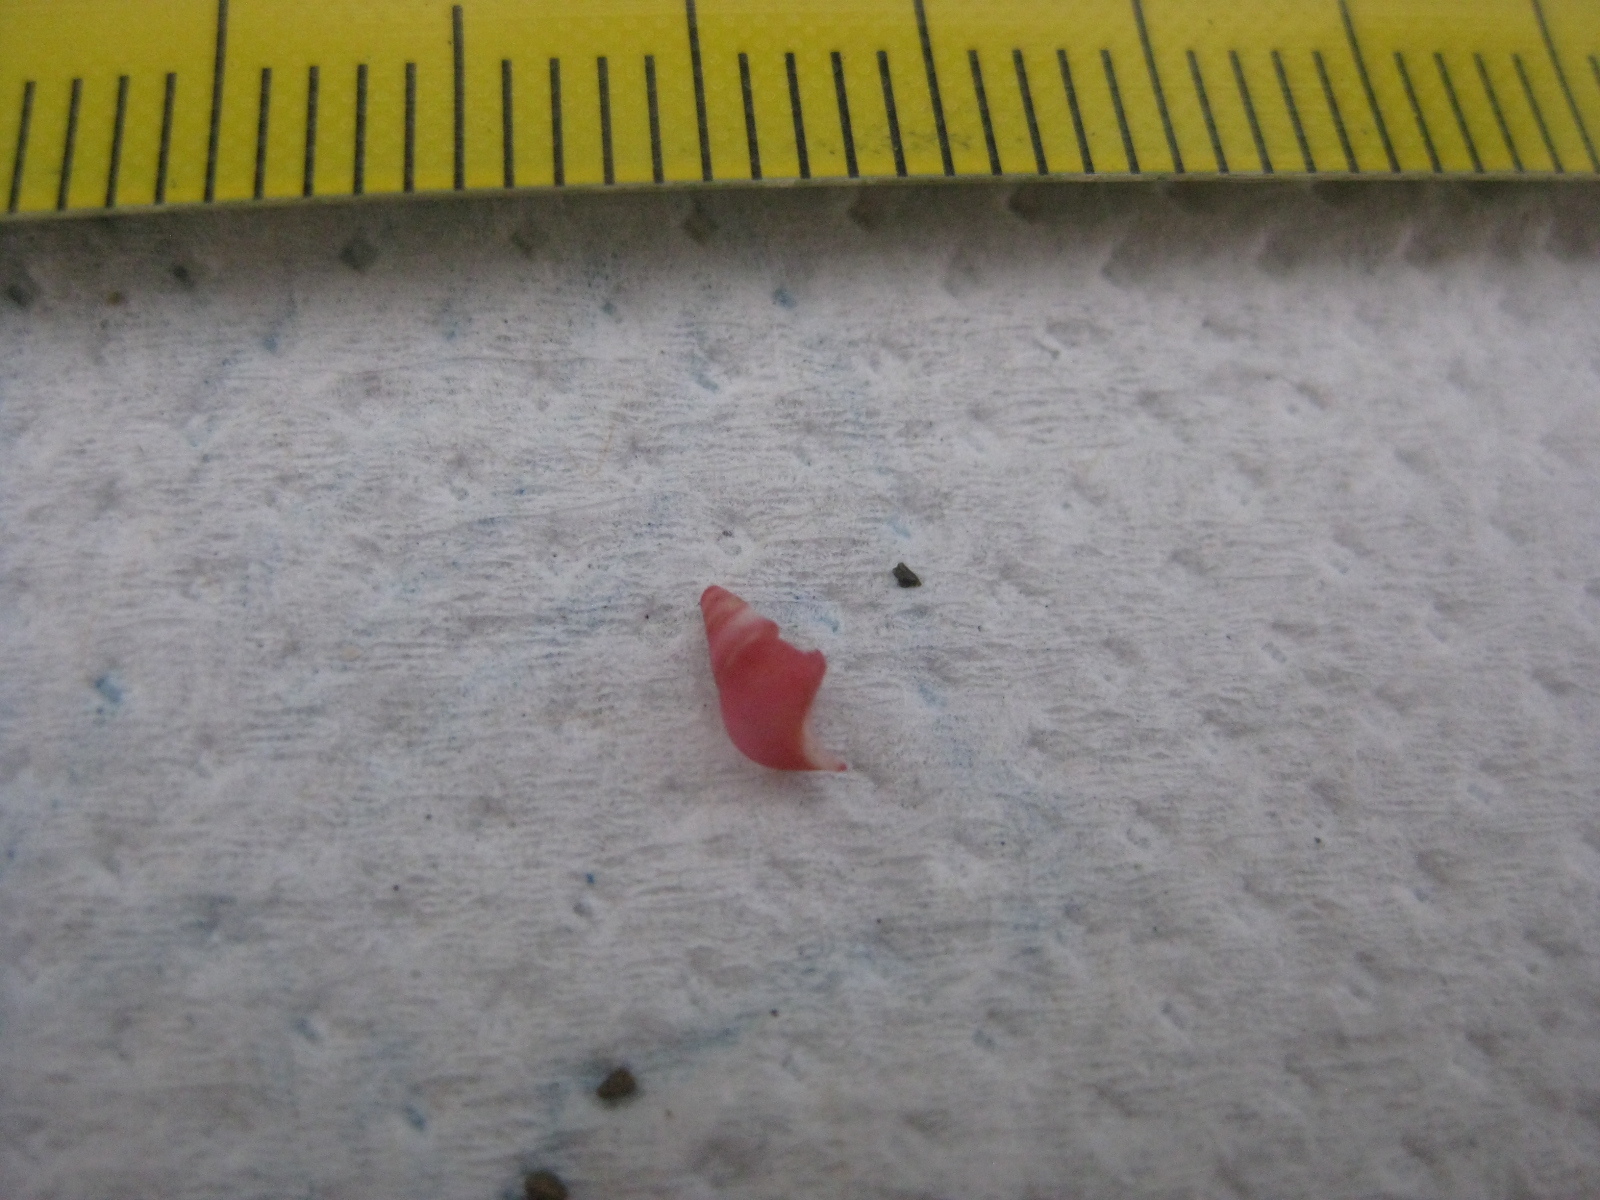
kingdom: Animalia
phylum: Mollusca
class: Gastropoda
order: Littorinimorpha
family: Eatoniellidae
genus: Eatoniella
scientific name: Eatoniella flammulata
